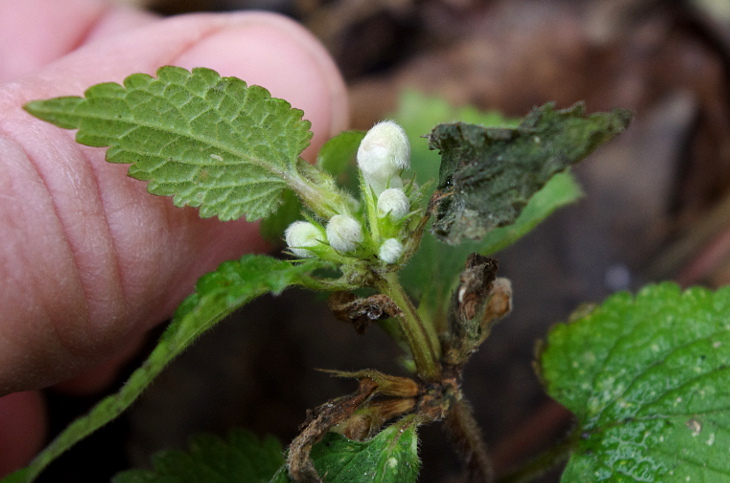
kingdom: Plantae
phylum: Tracheophyta
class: Magnoliopsida
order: Lamiales
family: Lamiaceae
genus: Lamium
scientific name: Lamium album
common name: White dead-nettle
